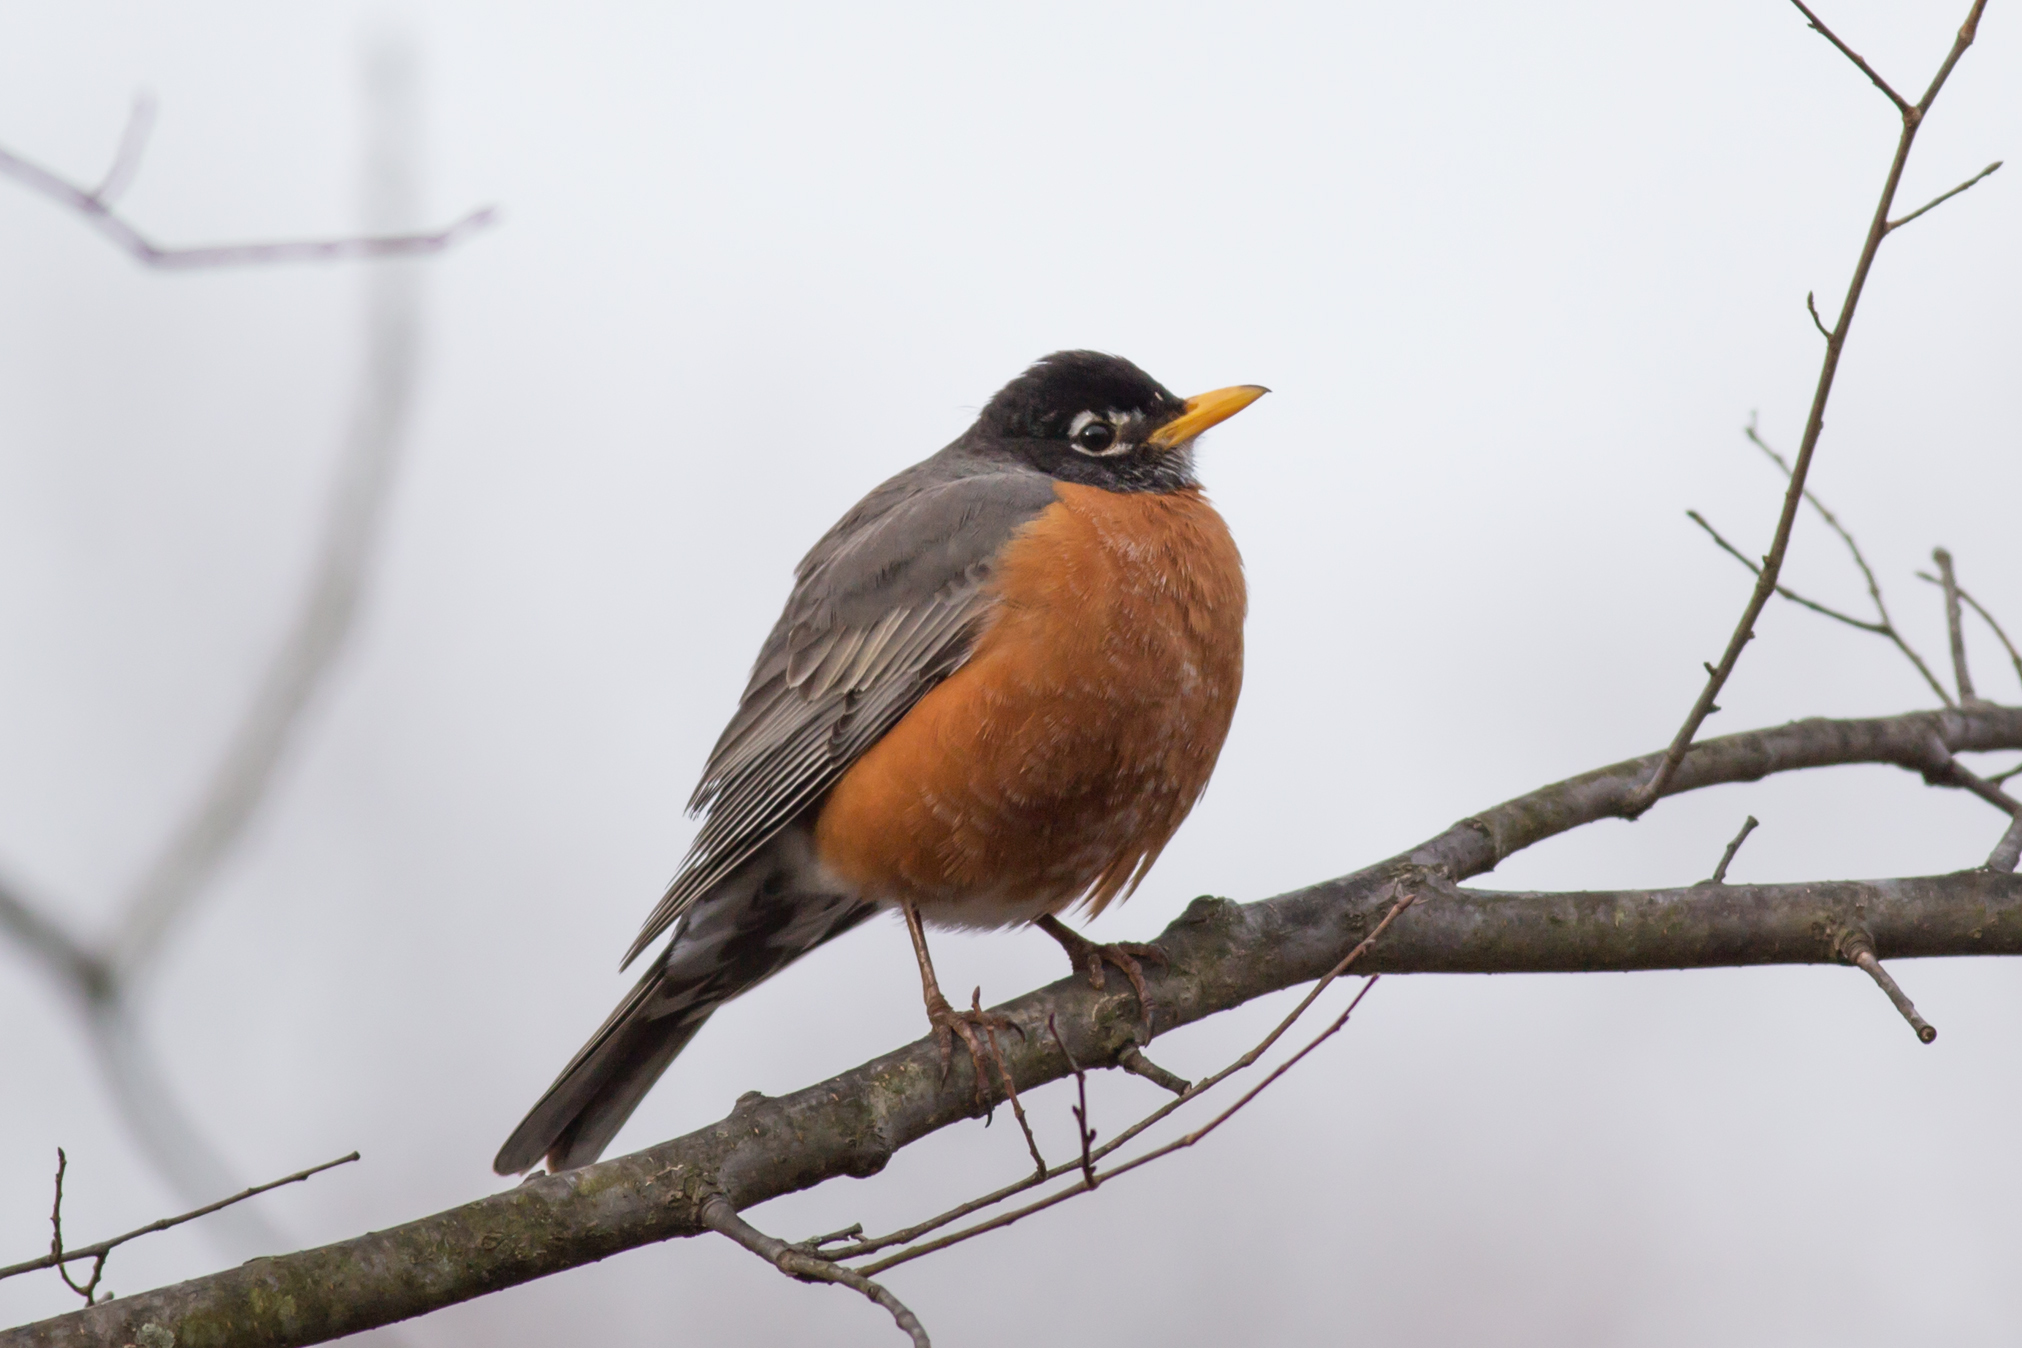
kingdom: Animalia
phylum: Chordata
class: Aves
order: Passeriformes
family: Turdidae
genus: Turdus
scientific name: Turdus migratorius
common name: American robin
